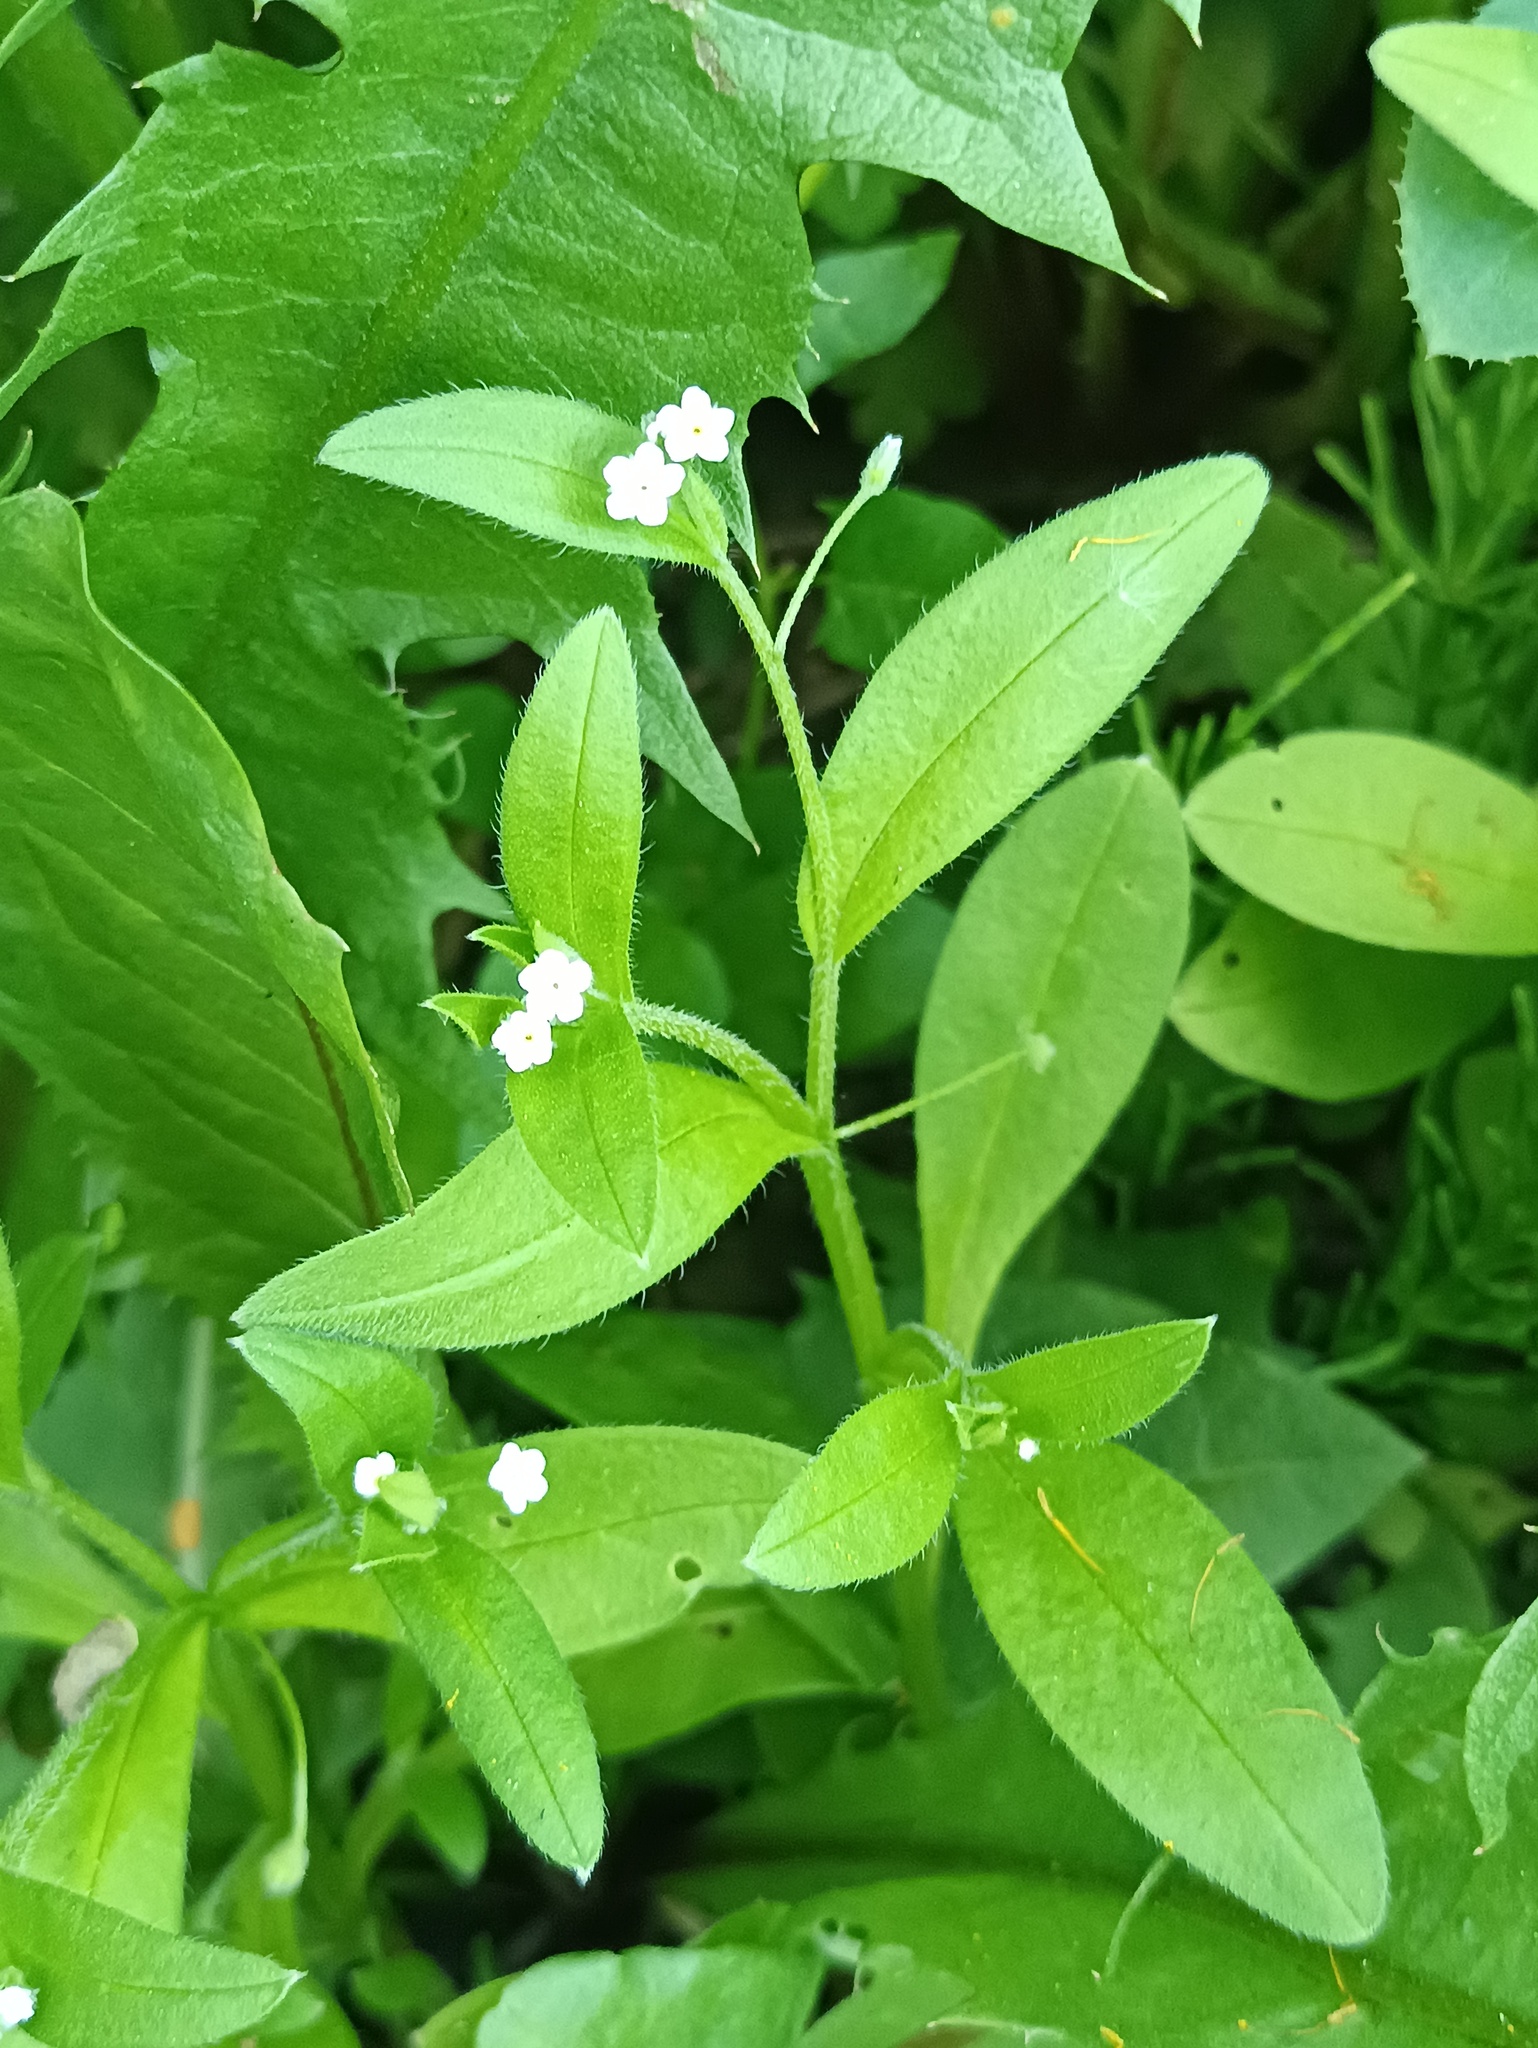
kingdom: Plantae
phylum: Tracheophyta
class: Magnoliopsida
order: Boraginales
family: Boraginaceae
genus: Myosotis
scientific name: Myosotis sparsiflora
